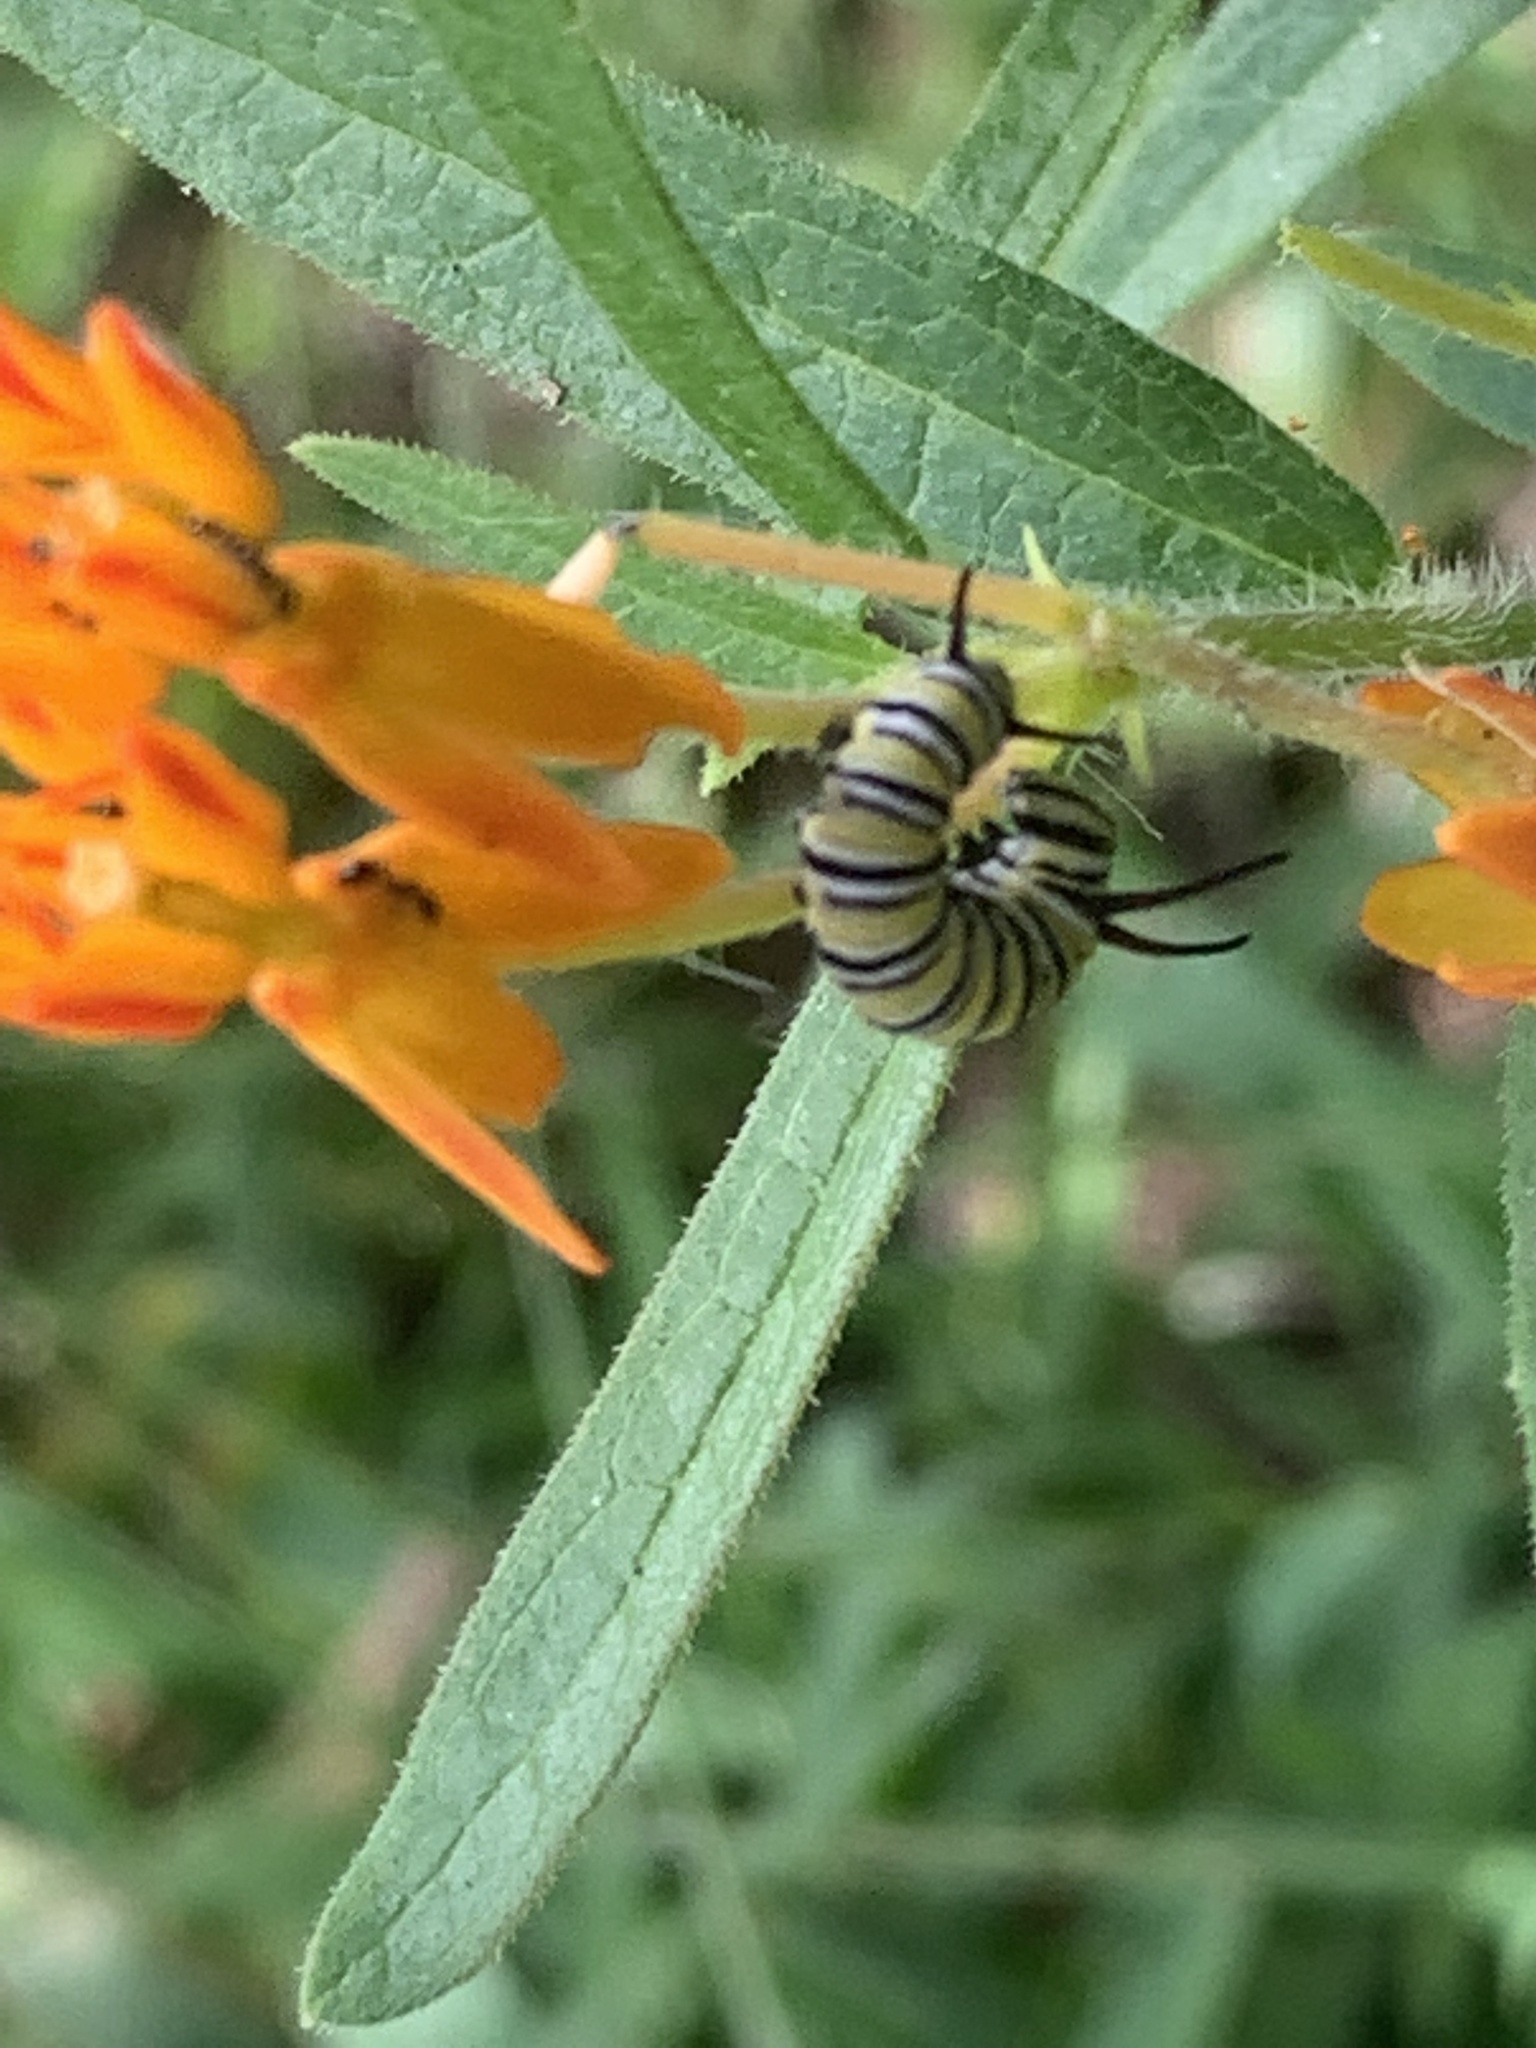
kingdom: Animalia
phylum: Arthropoda
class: Insecta
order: Lepidoptera
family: Nymphalidae
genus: Danaus
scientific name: Danaus plexippus
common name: Monarch
